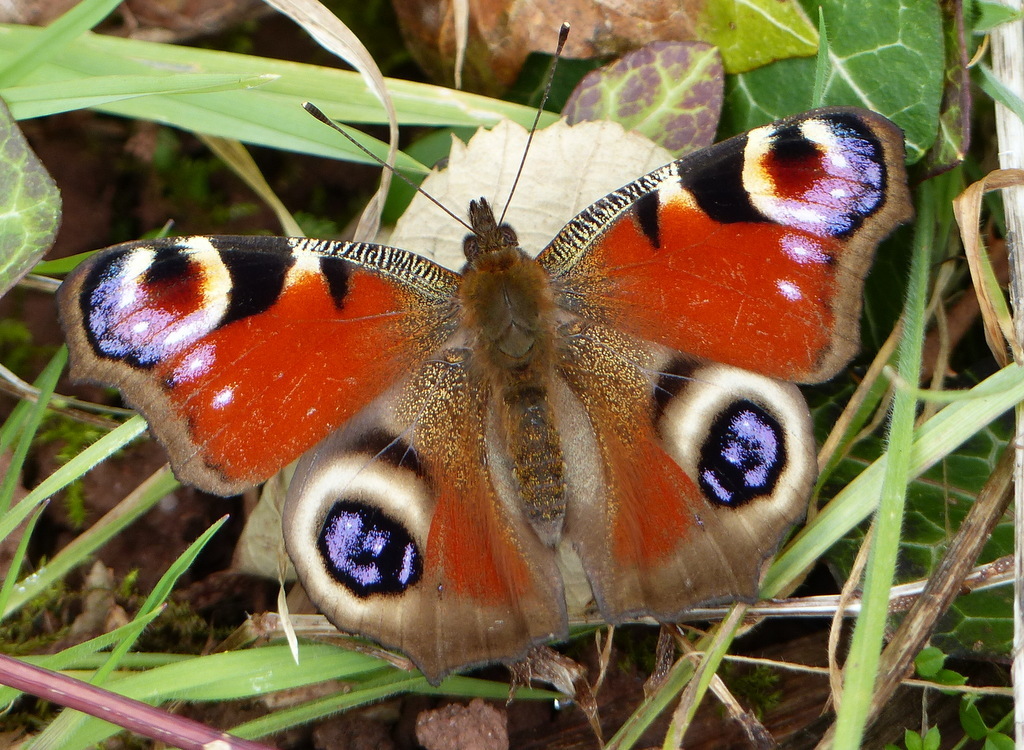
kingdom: Animalia
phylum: Arthropoda
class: Insecta
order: Lepidoptera
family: Nymphalidae
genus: Aglais
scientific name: Aglais io
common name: Peacock
